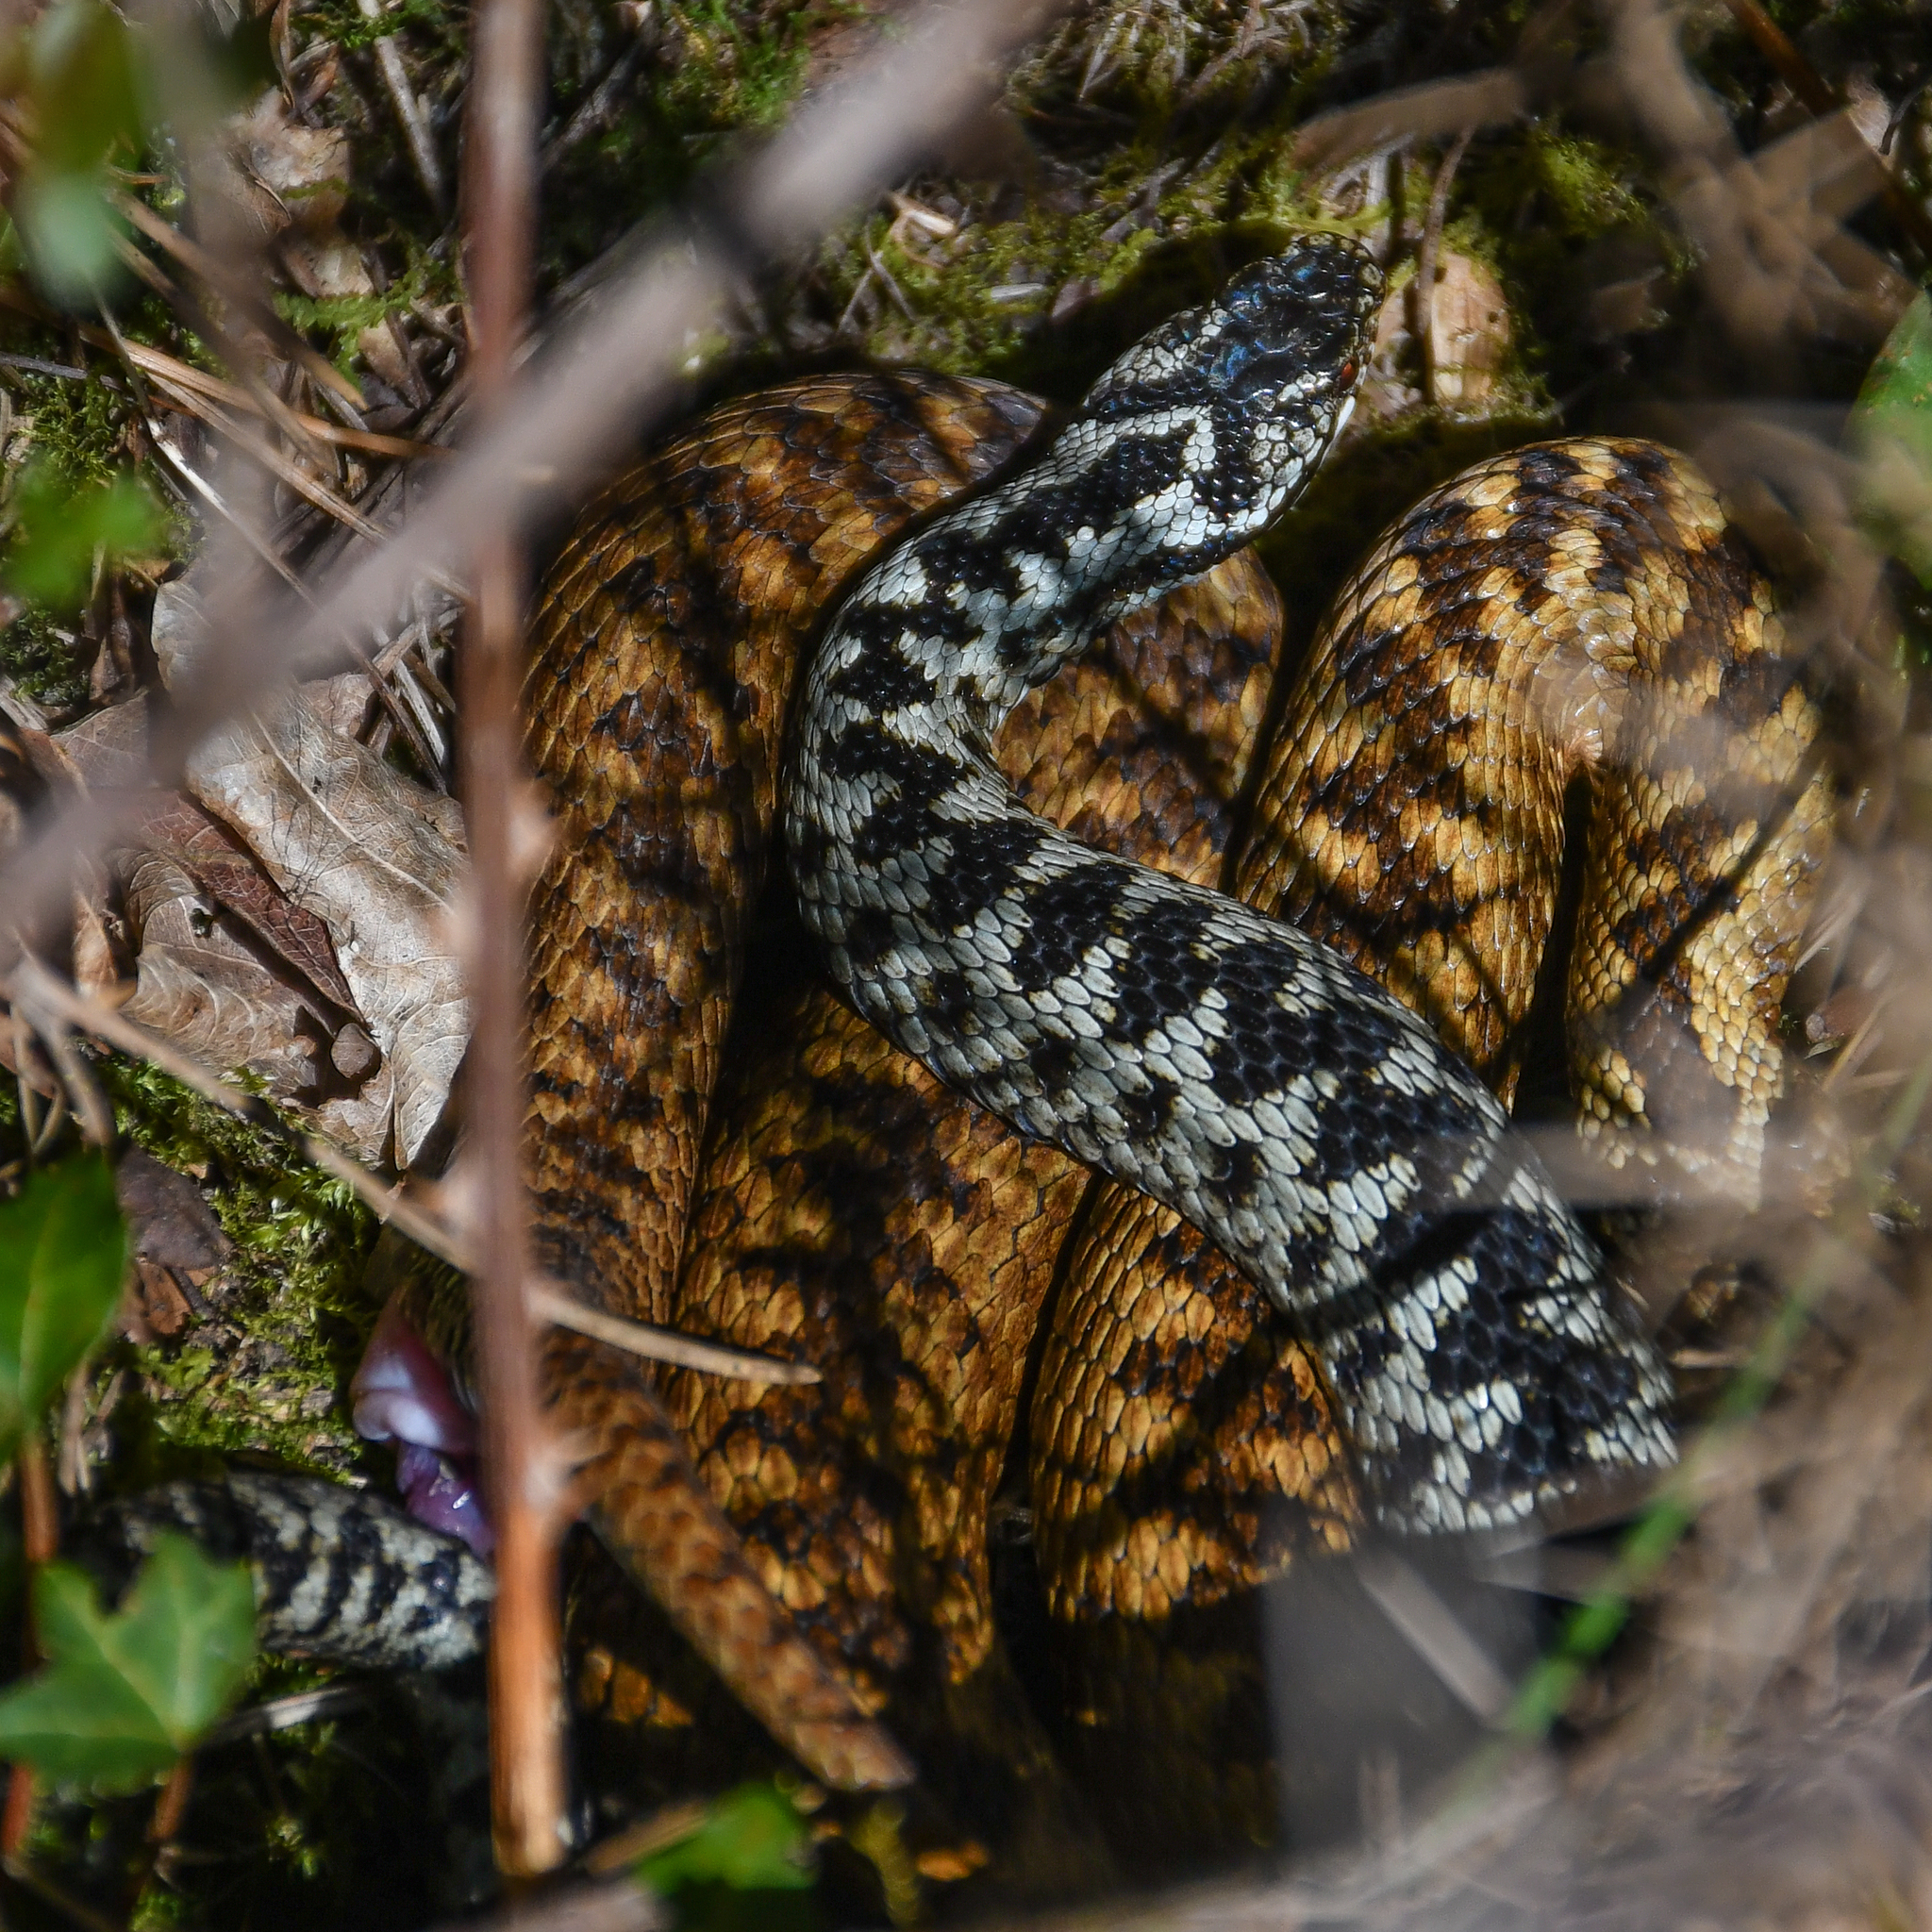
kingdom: Animalia
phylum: Chordata
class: Squamata
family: Viperidae
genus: Vipera
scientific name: Vipera berus
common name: Adder
